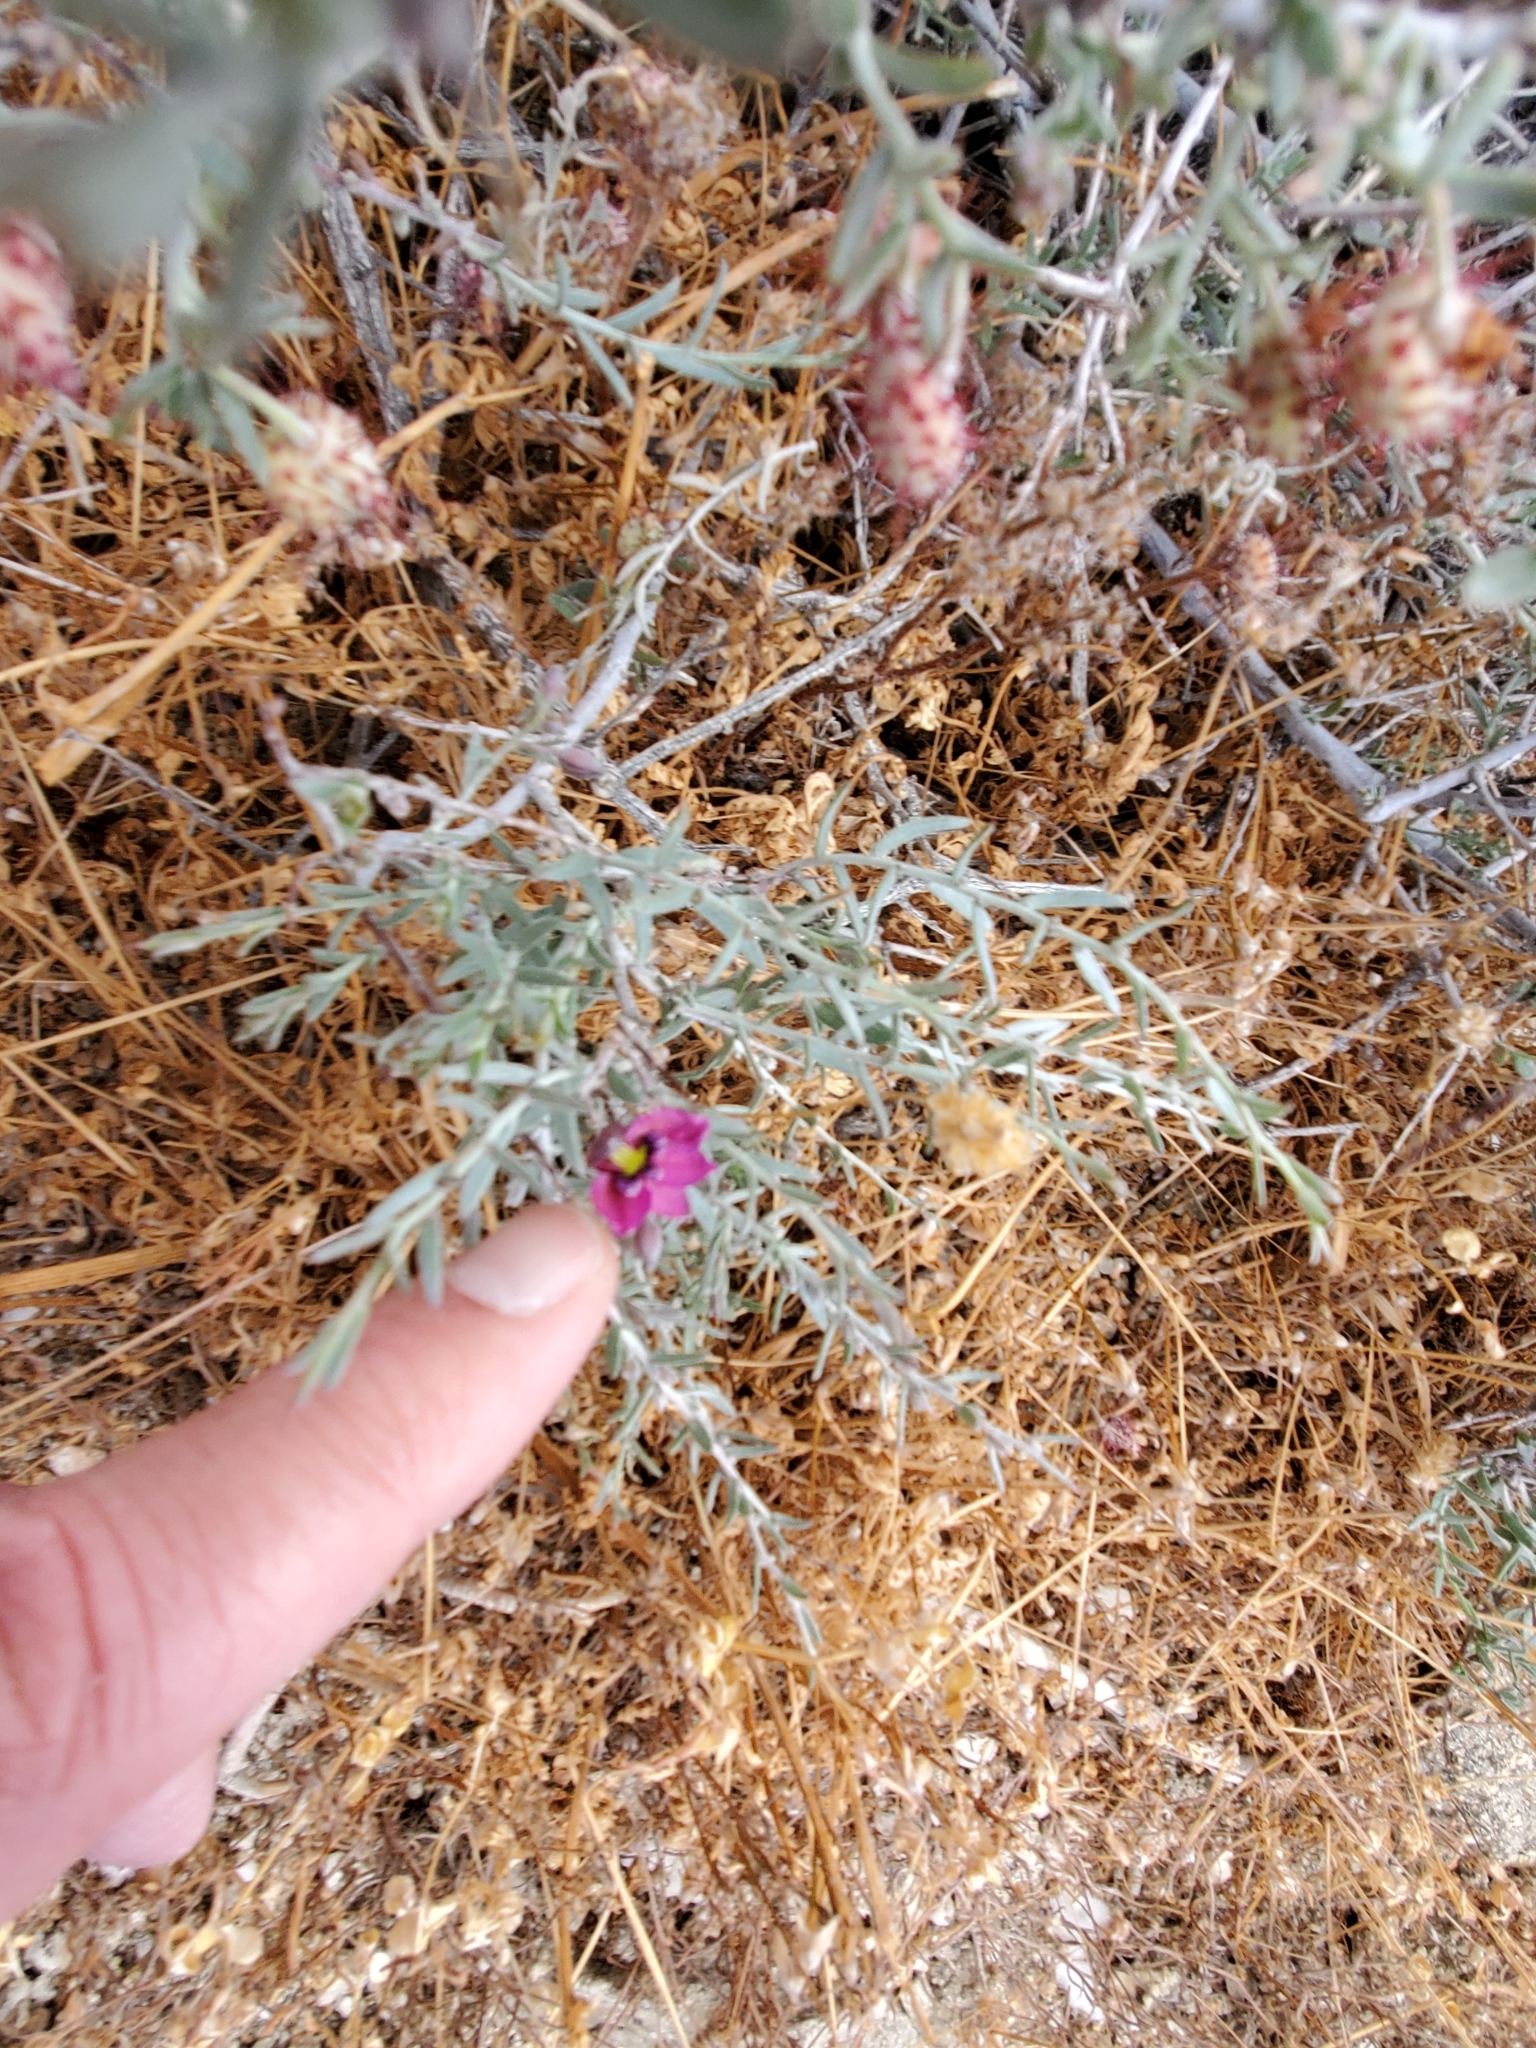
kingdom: Plantae
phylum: Tracheophyta
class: Magnoliopsida
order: Zygophyllales
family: Krameriaceae
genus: Krameria
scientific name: Krameria erecta
